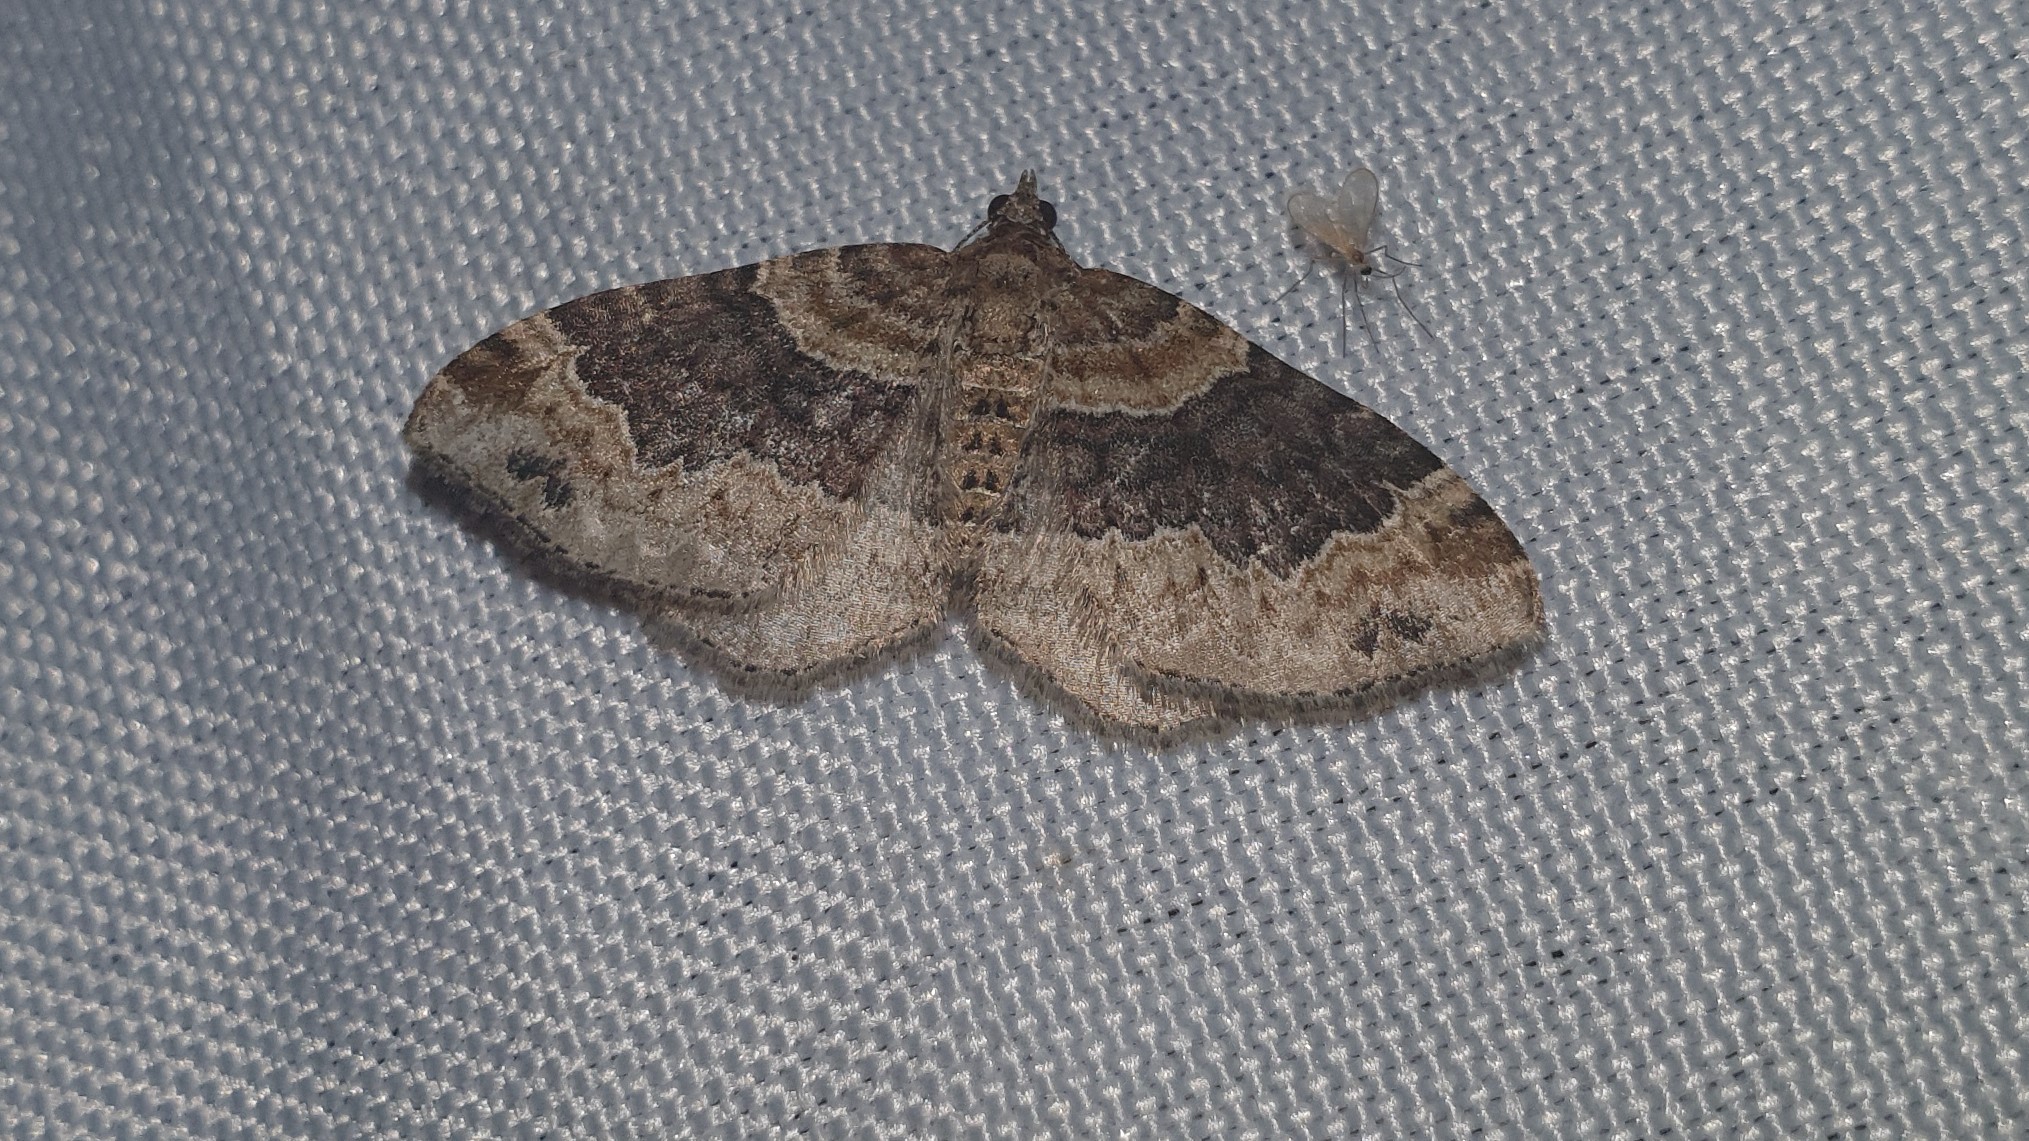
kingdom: Animalia
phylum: Arthropoda
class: Insecta
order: Lepidoptera
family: Geometridae
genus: Xanthorhoe
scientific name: Xanthorhoe ferrugata
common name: Dark-barred twin-spot carpet
